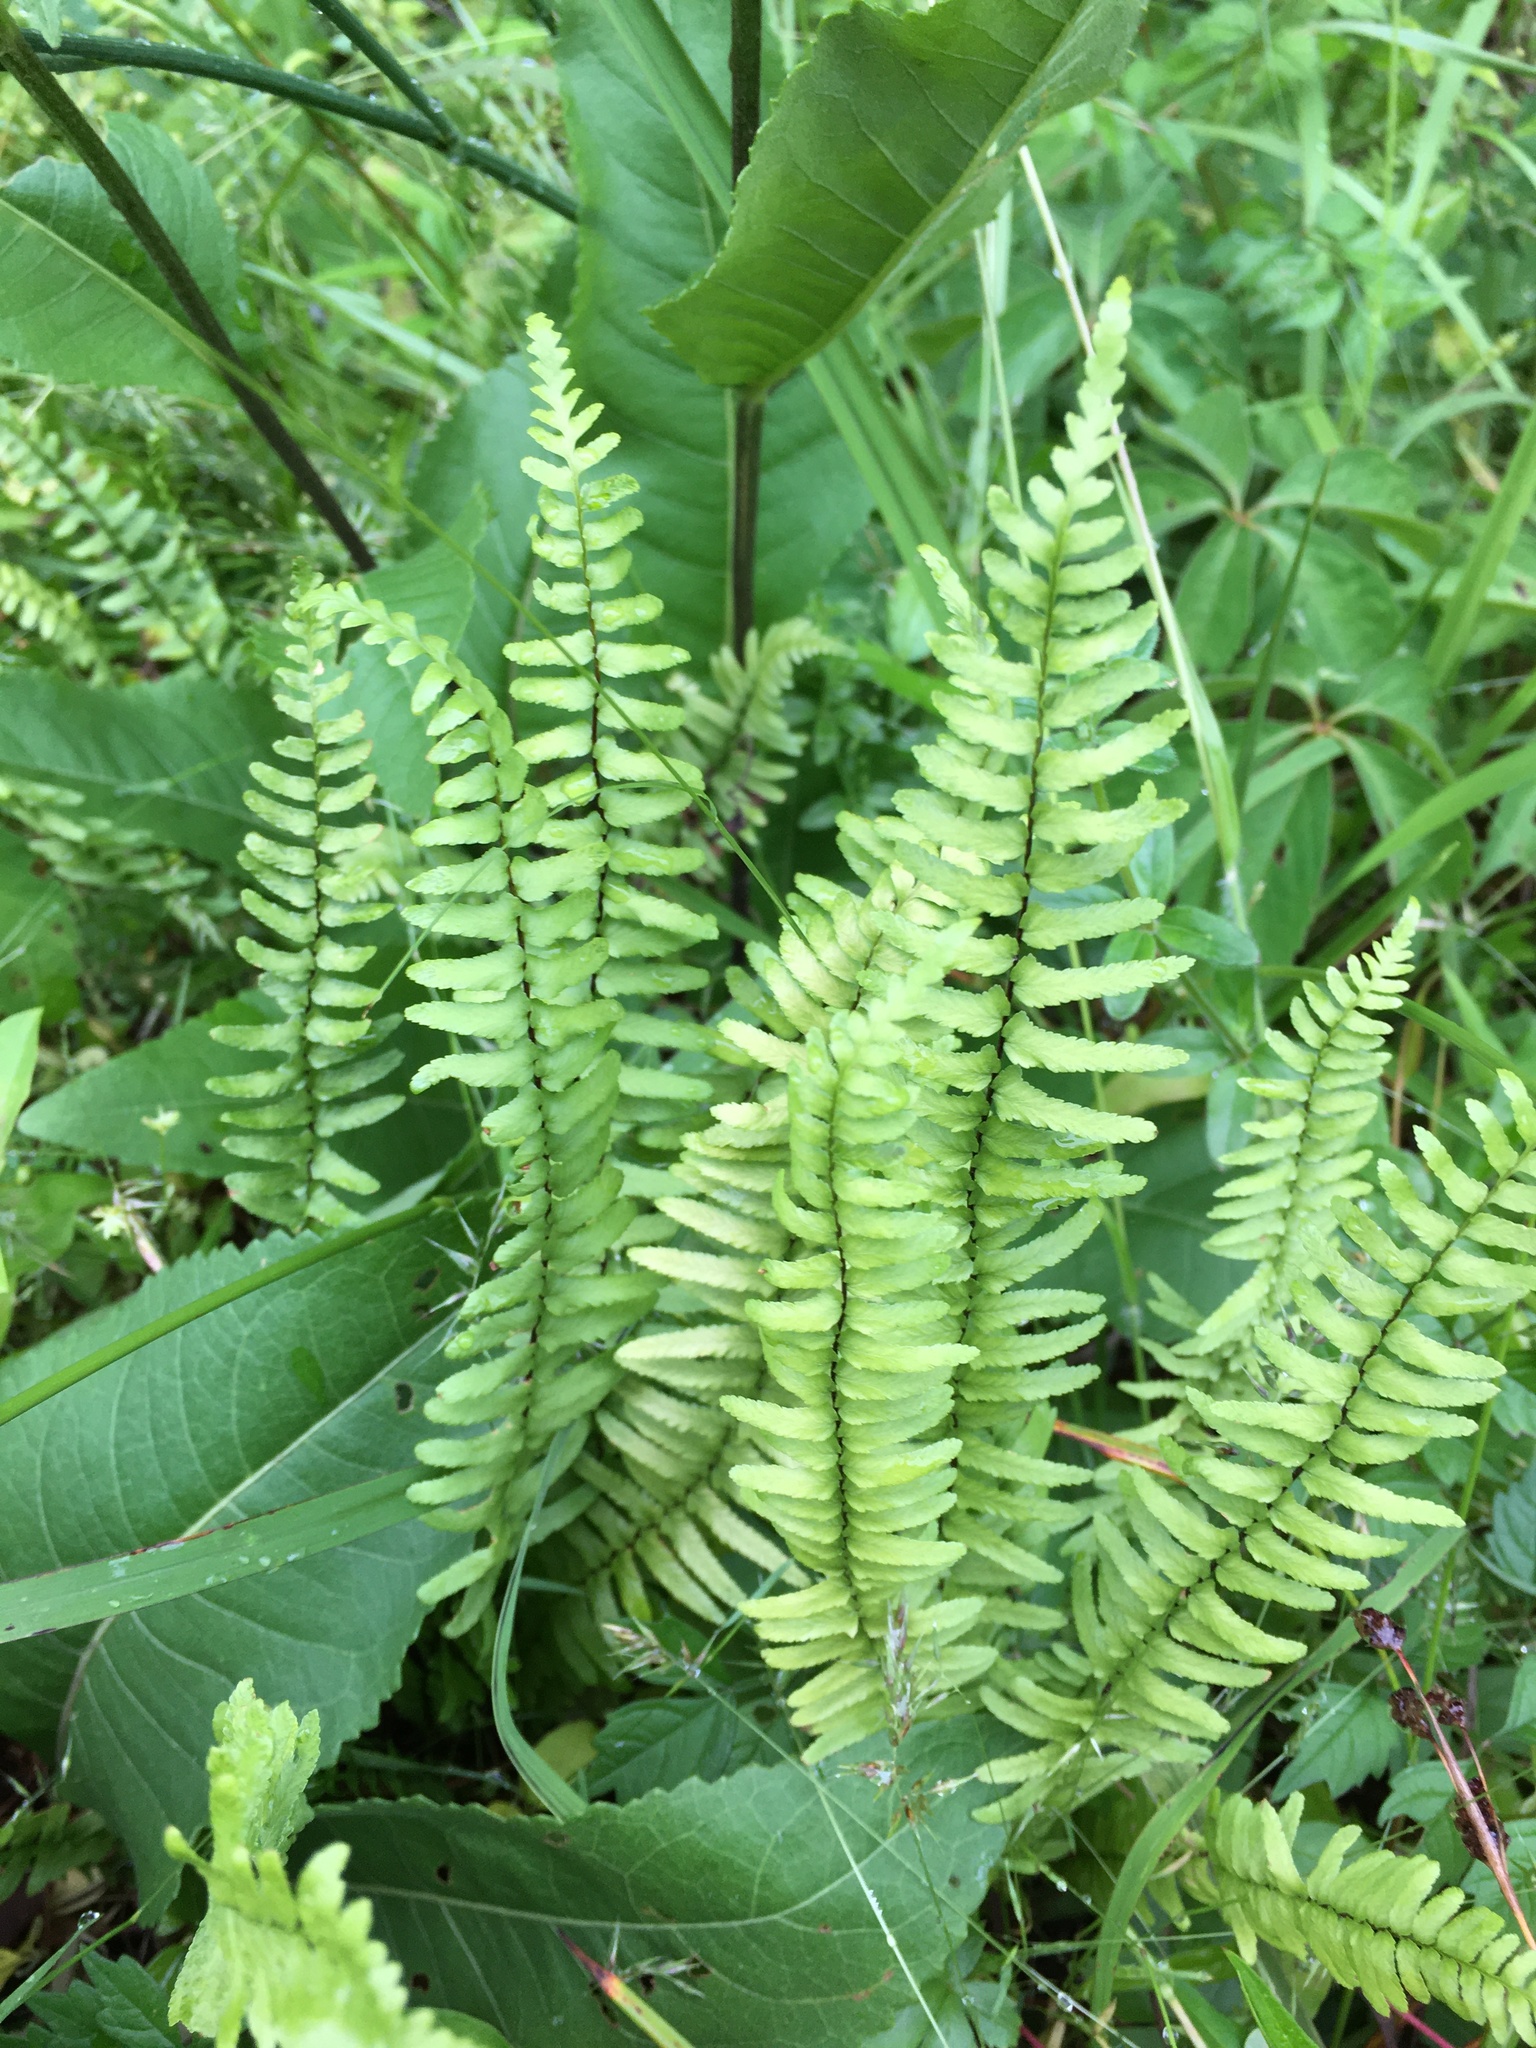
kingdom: Plantae
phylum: Tracheophyta
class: Polypodiopsida
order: Polypodiales
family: Aspleniaceae
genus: Asplenium
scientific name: Asplenium platyneuron
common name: Ebony spleenwort
